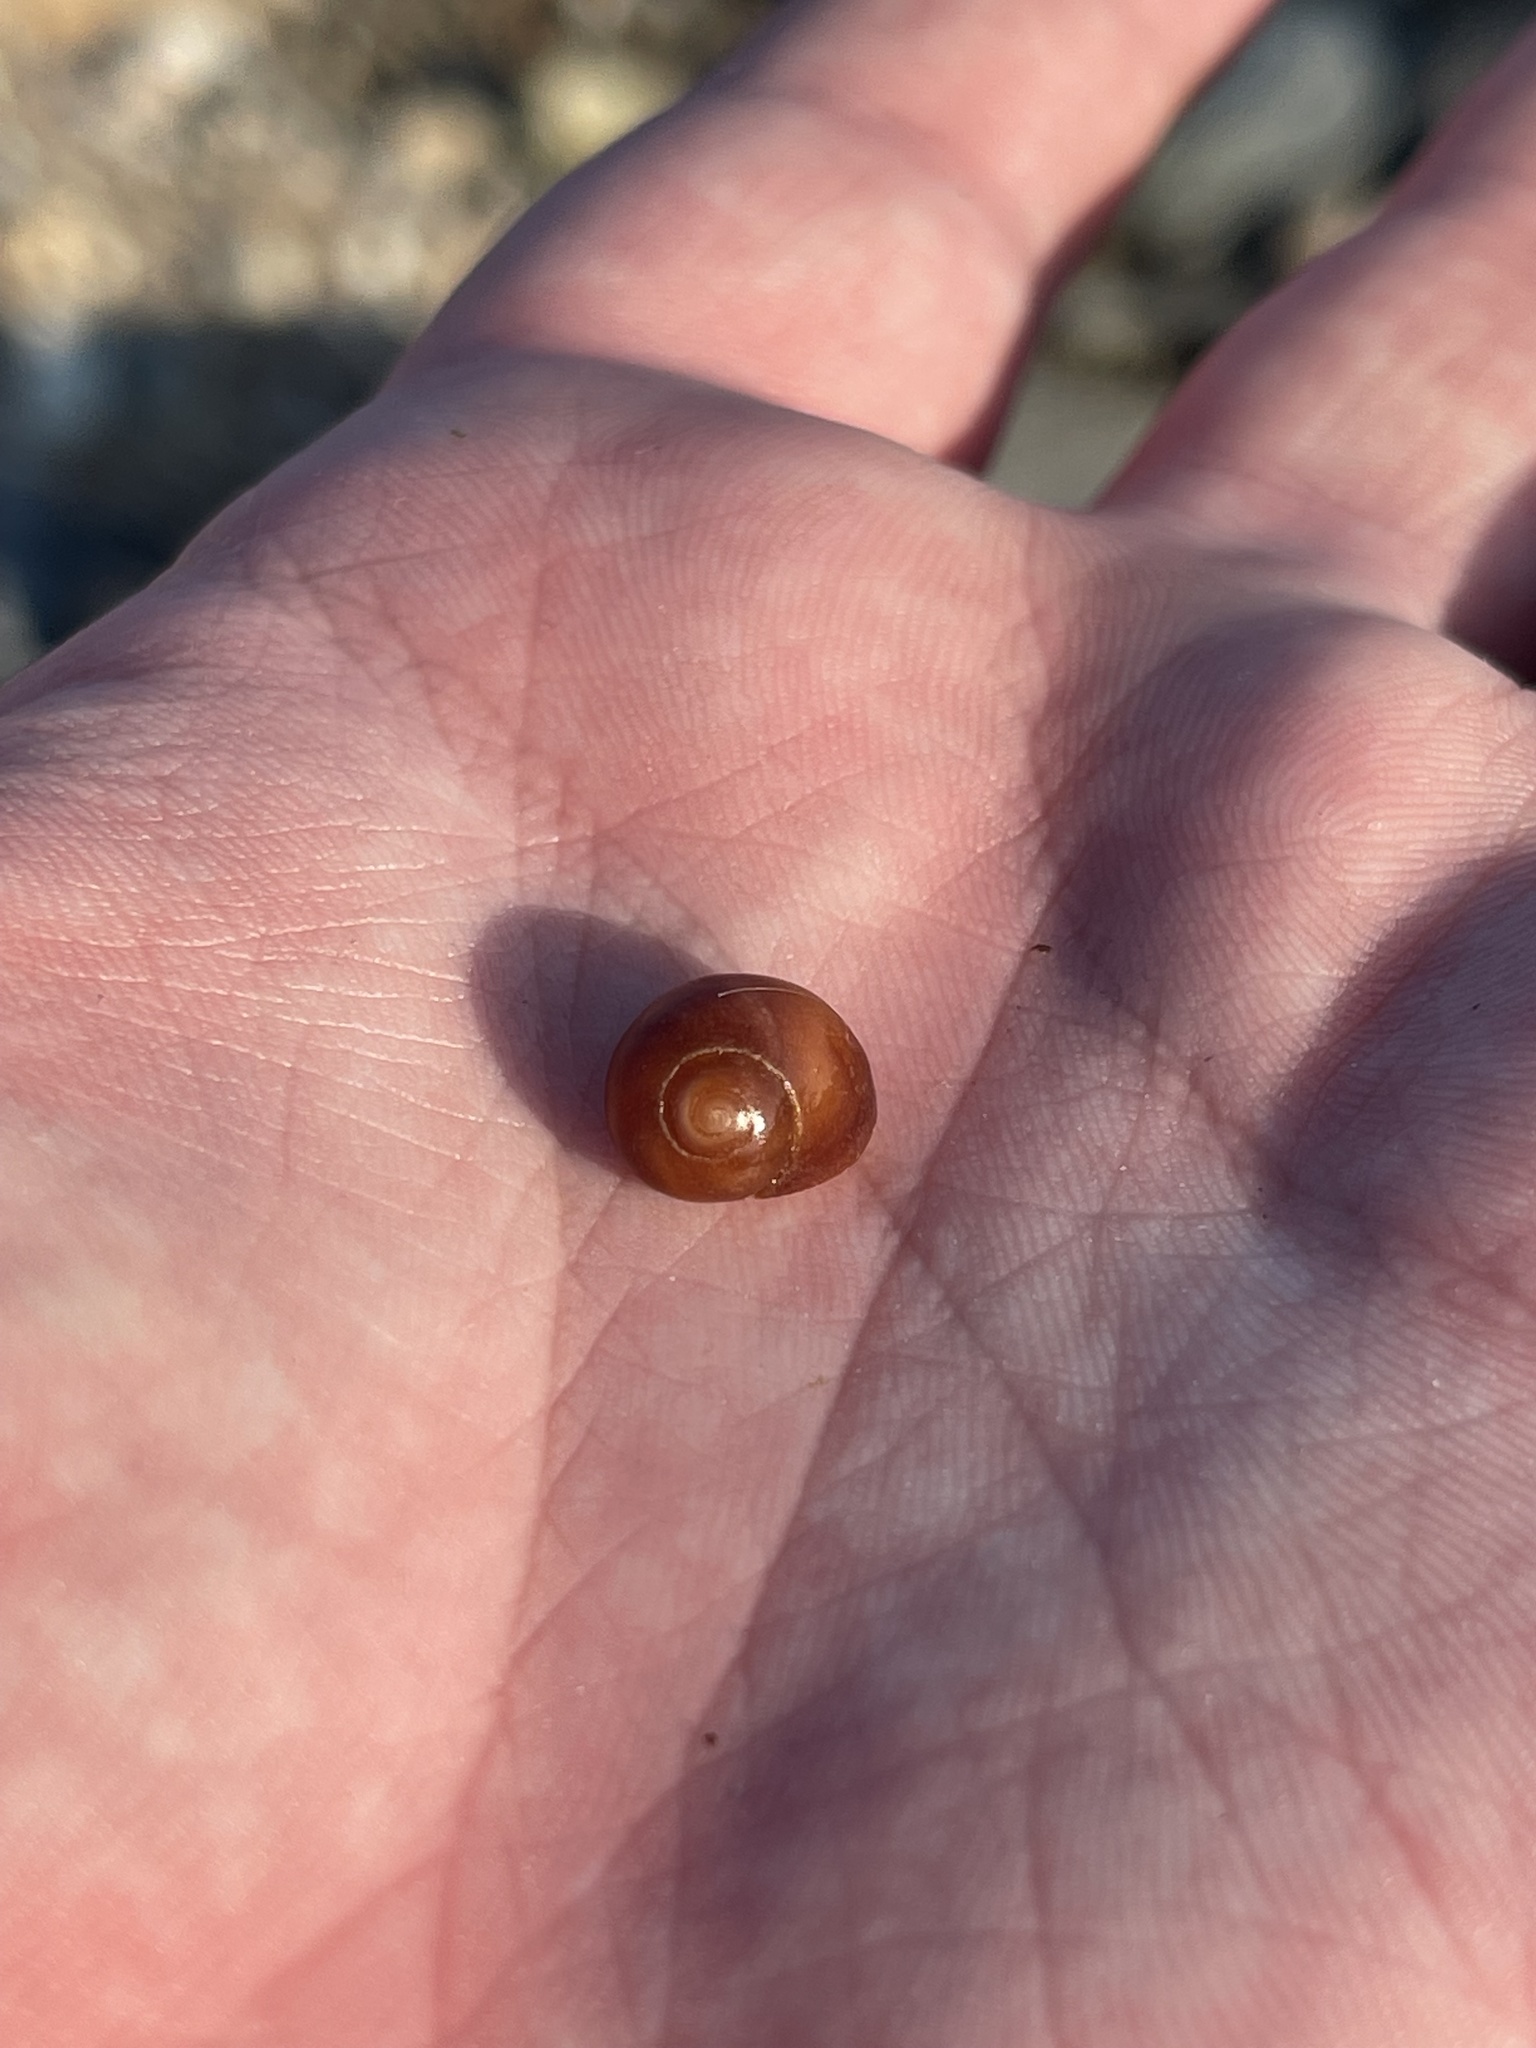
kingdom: Animalia
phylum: Mollusca
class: Gastropoda
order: Littorinimorpha
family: Littorinidae
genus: Littorina
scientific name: Littorina obtusata
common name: Flat periwinkle
